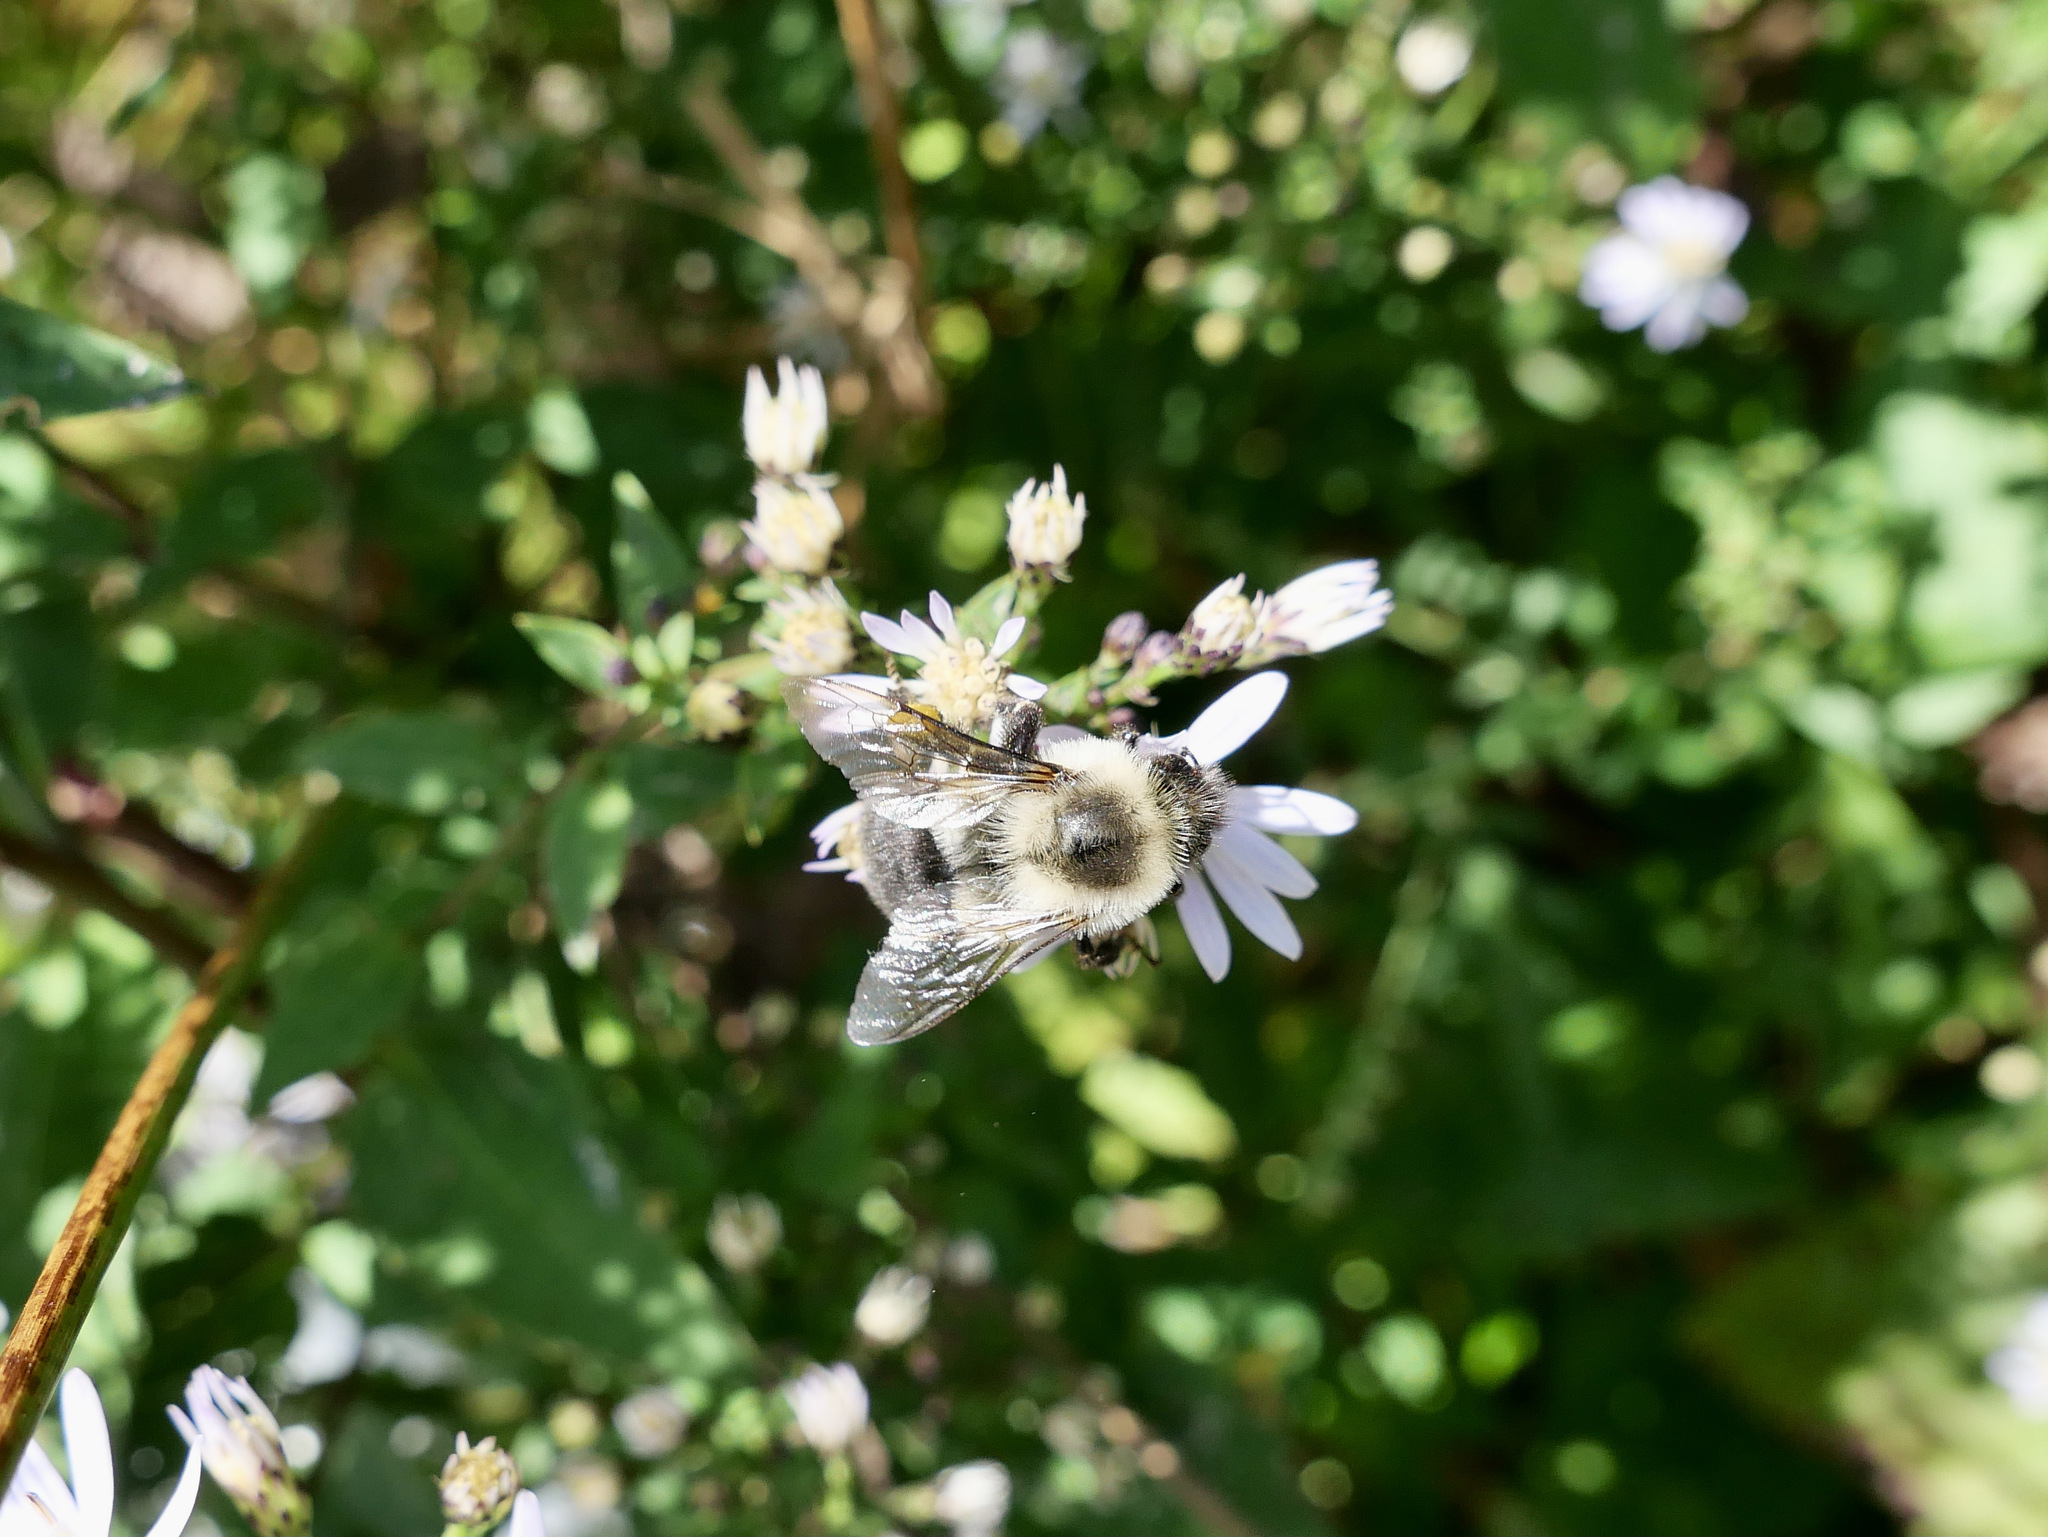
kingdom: Animalia
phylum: Arthropoda
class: Insecta
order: Hymenoptera
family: Apidae
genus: Bombus
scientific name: Bombus impatiens
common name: Common eastern bumble bee
